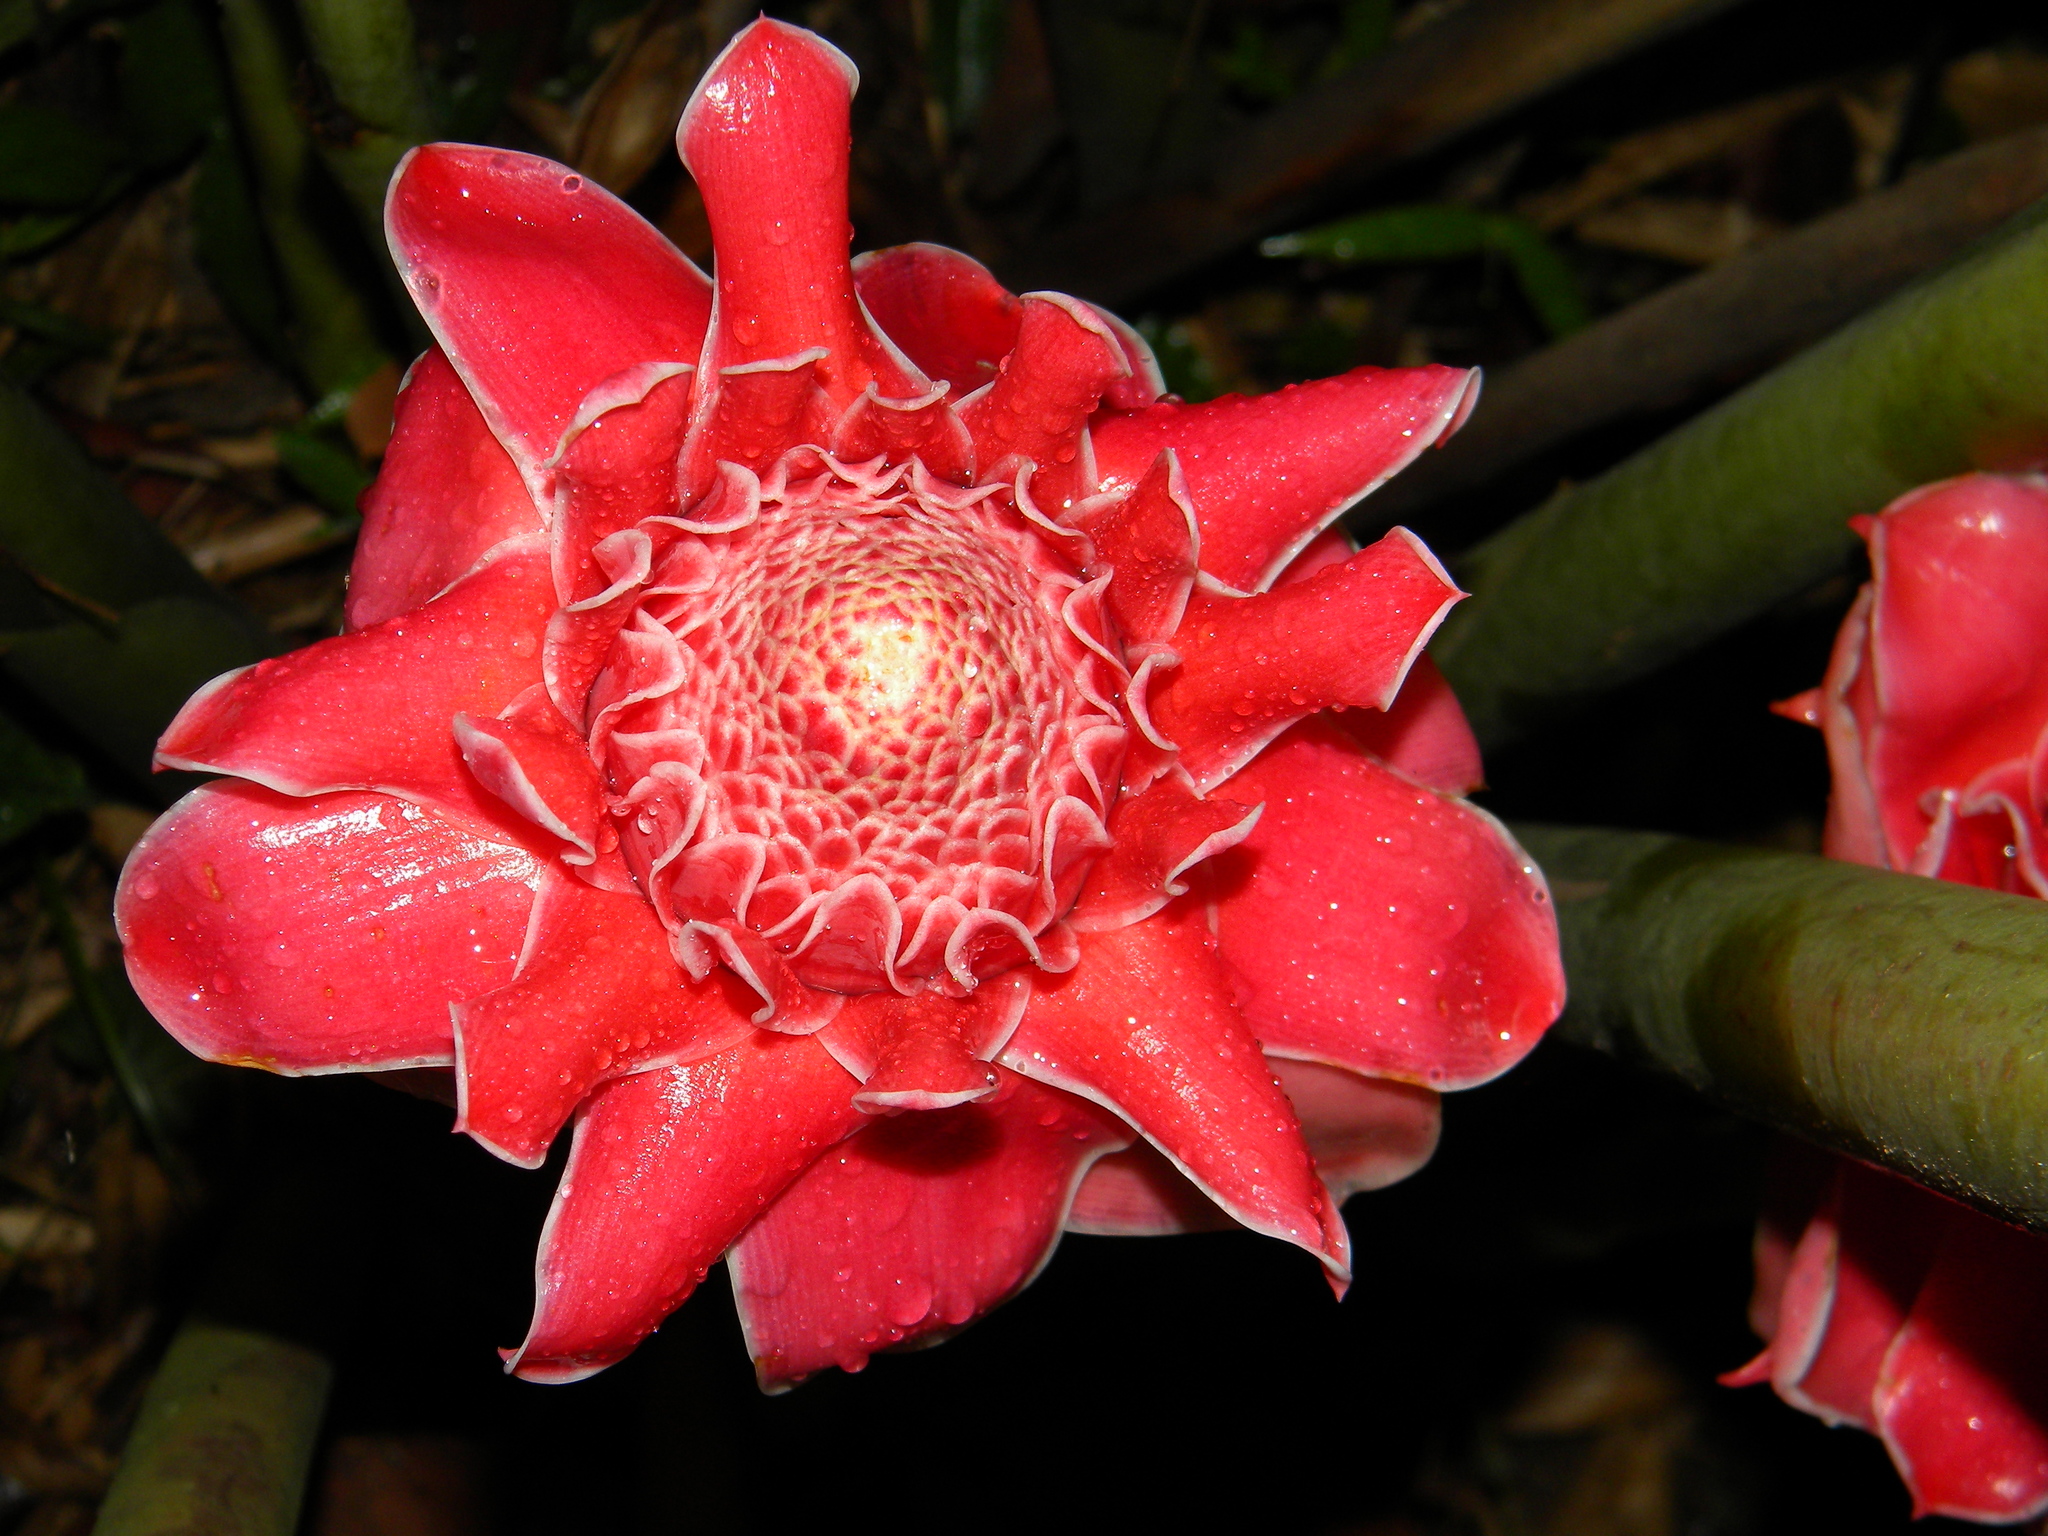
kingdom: Plantae
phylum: Tracheophyta
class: Liliopsida
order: Zingiberales
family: Zingiberaceae
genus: Etlingera
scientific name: Etlingera elatior
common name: Philippine waxflower
